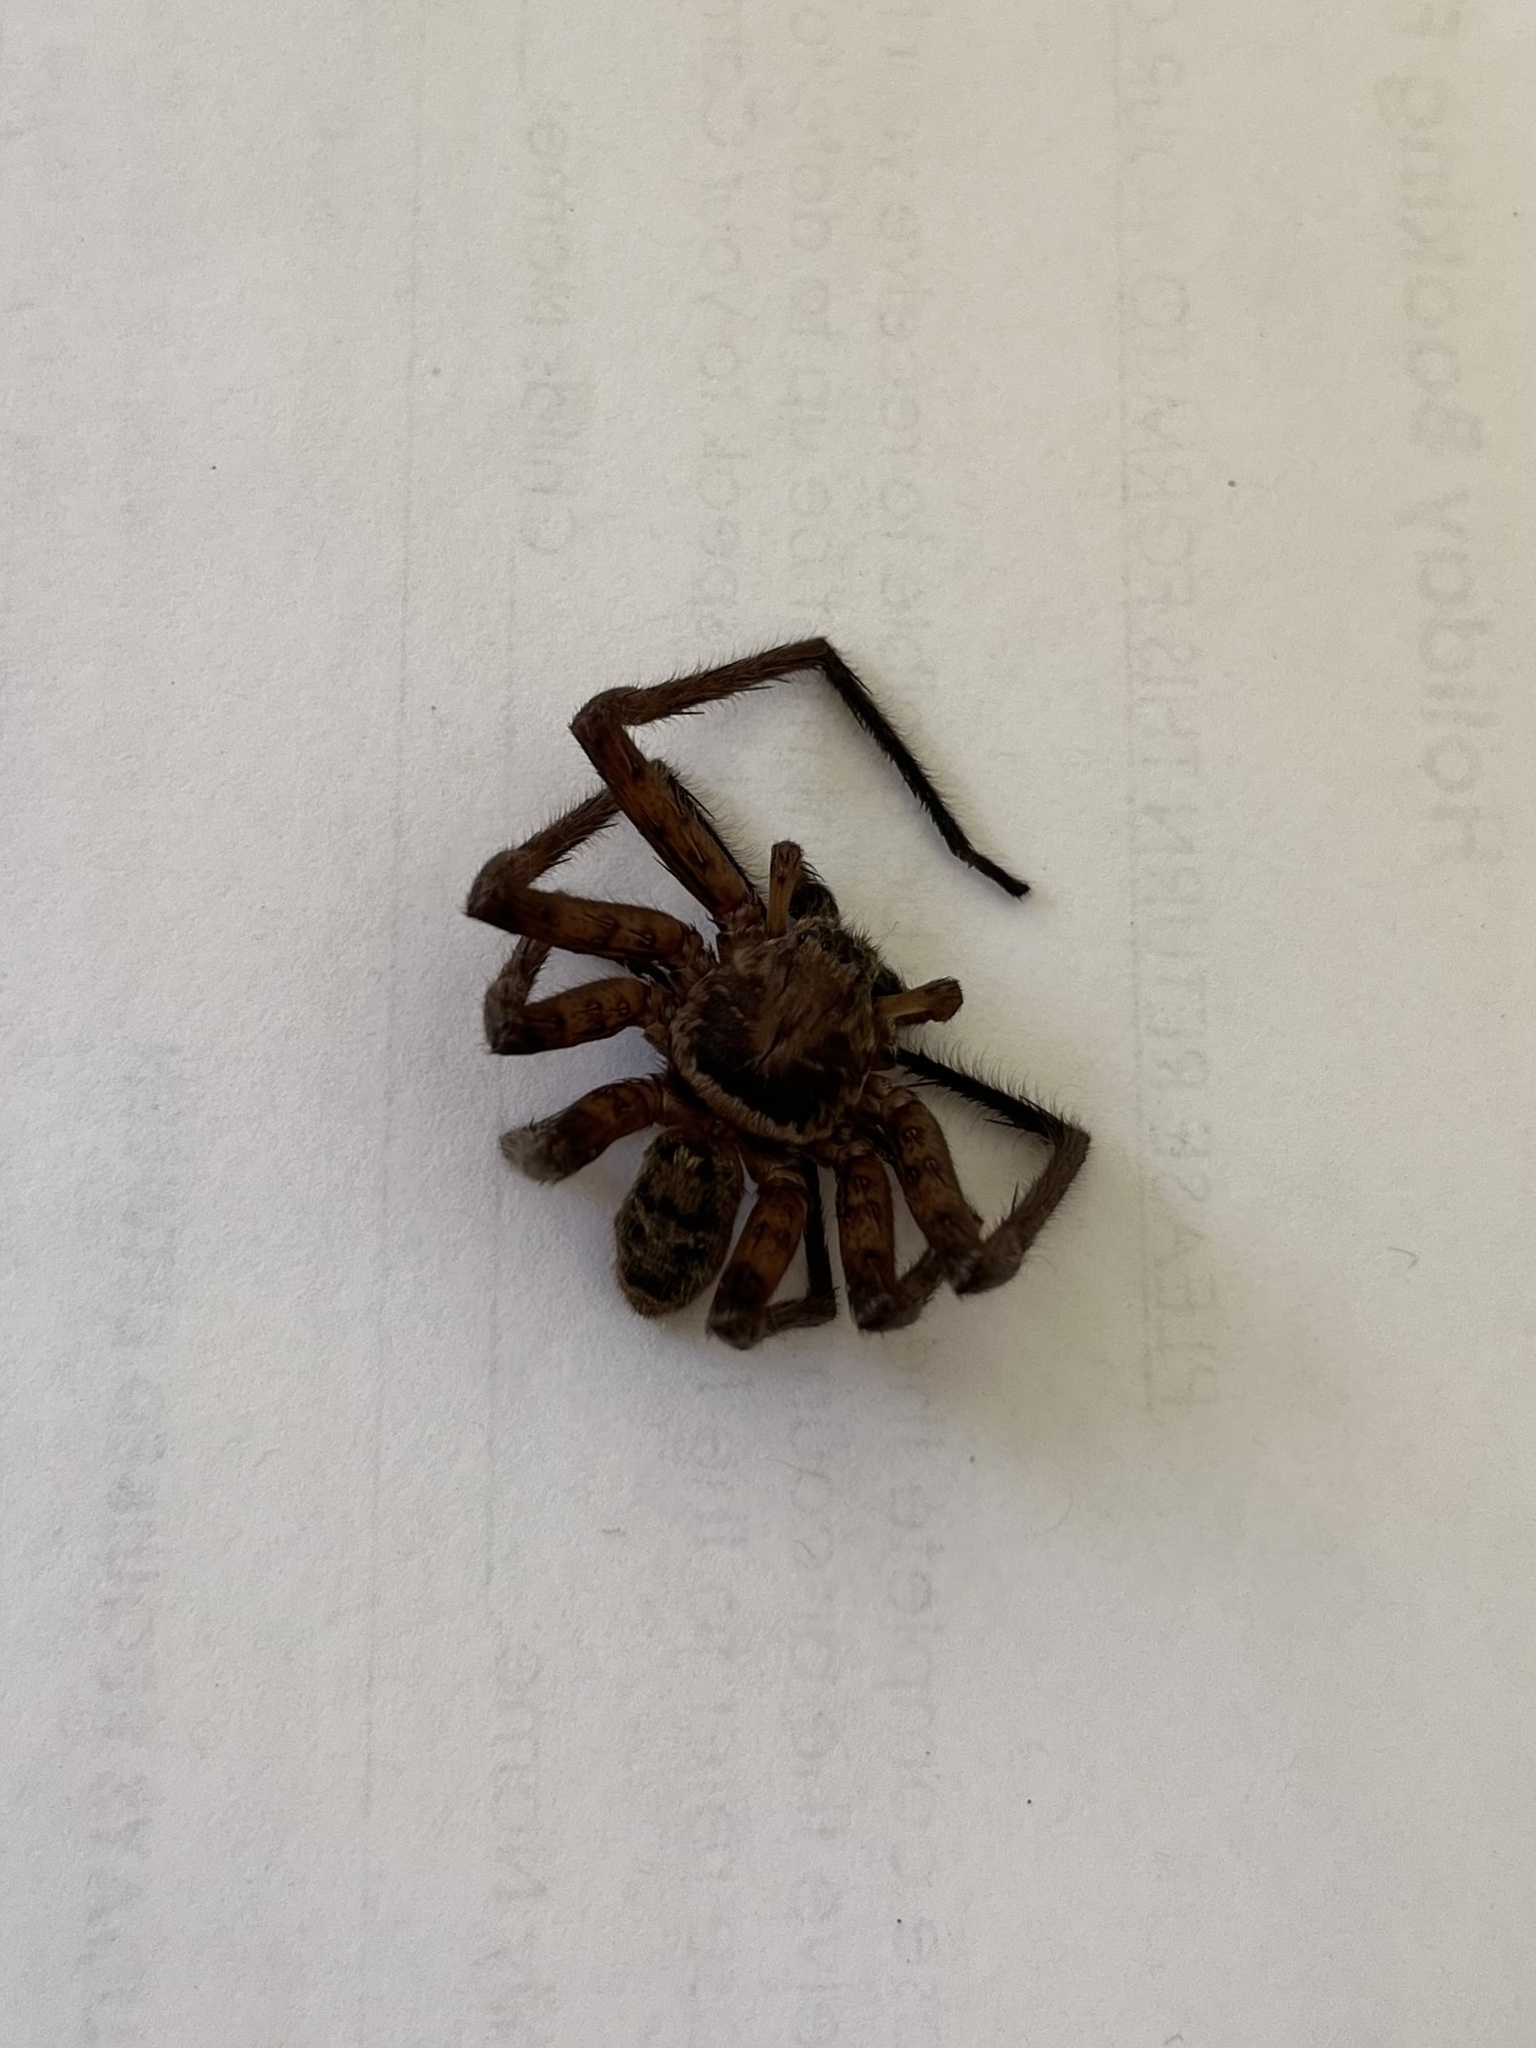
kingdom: Animalia
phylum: Arthropoda
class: Arachnida
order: Araneae
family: Sparassidae
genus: Heteropoda
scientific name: Heteropoda jugulans
